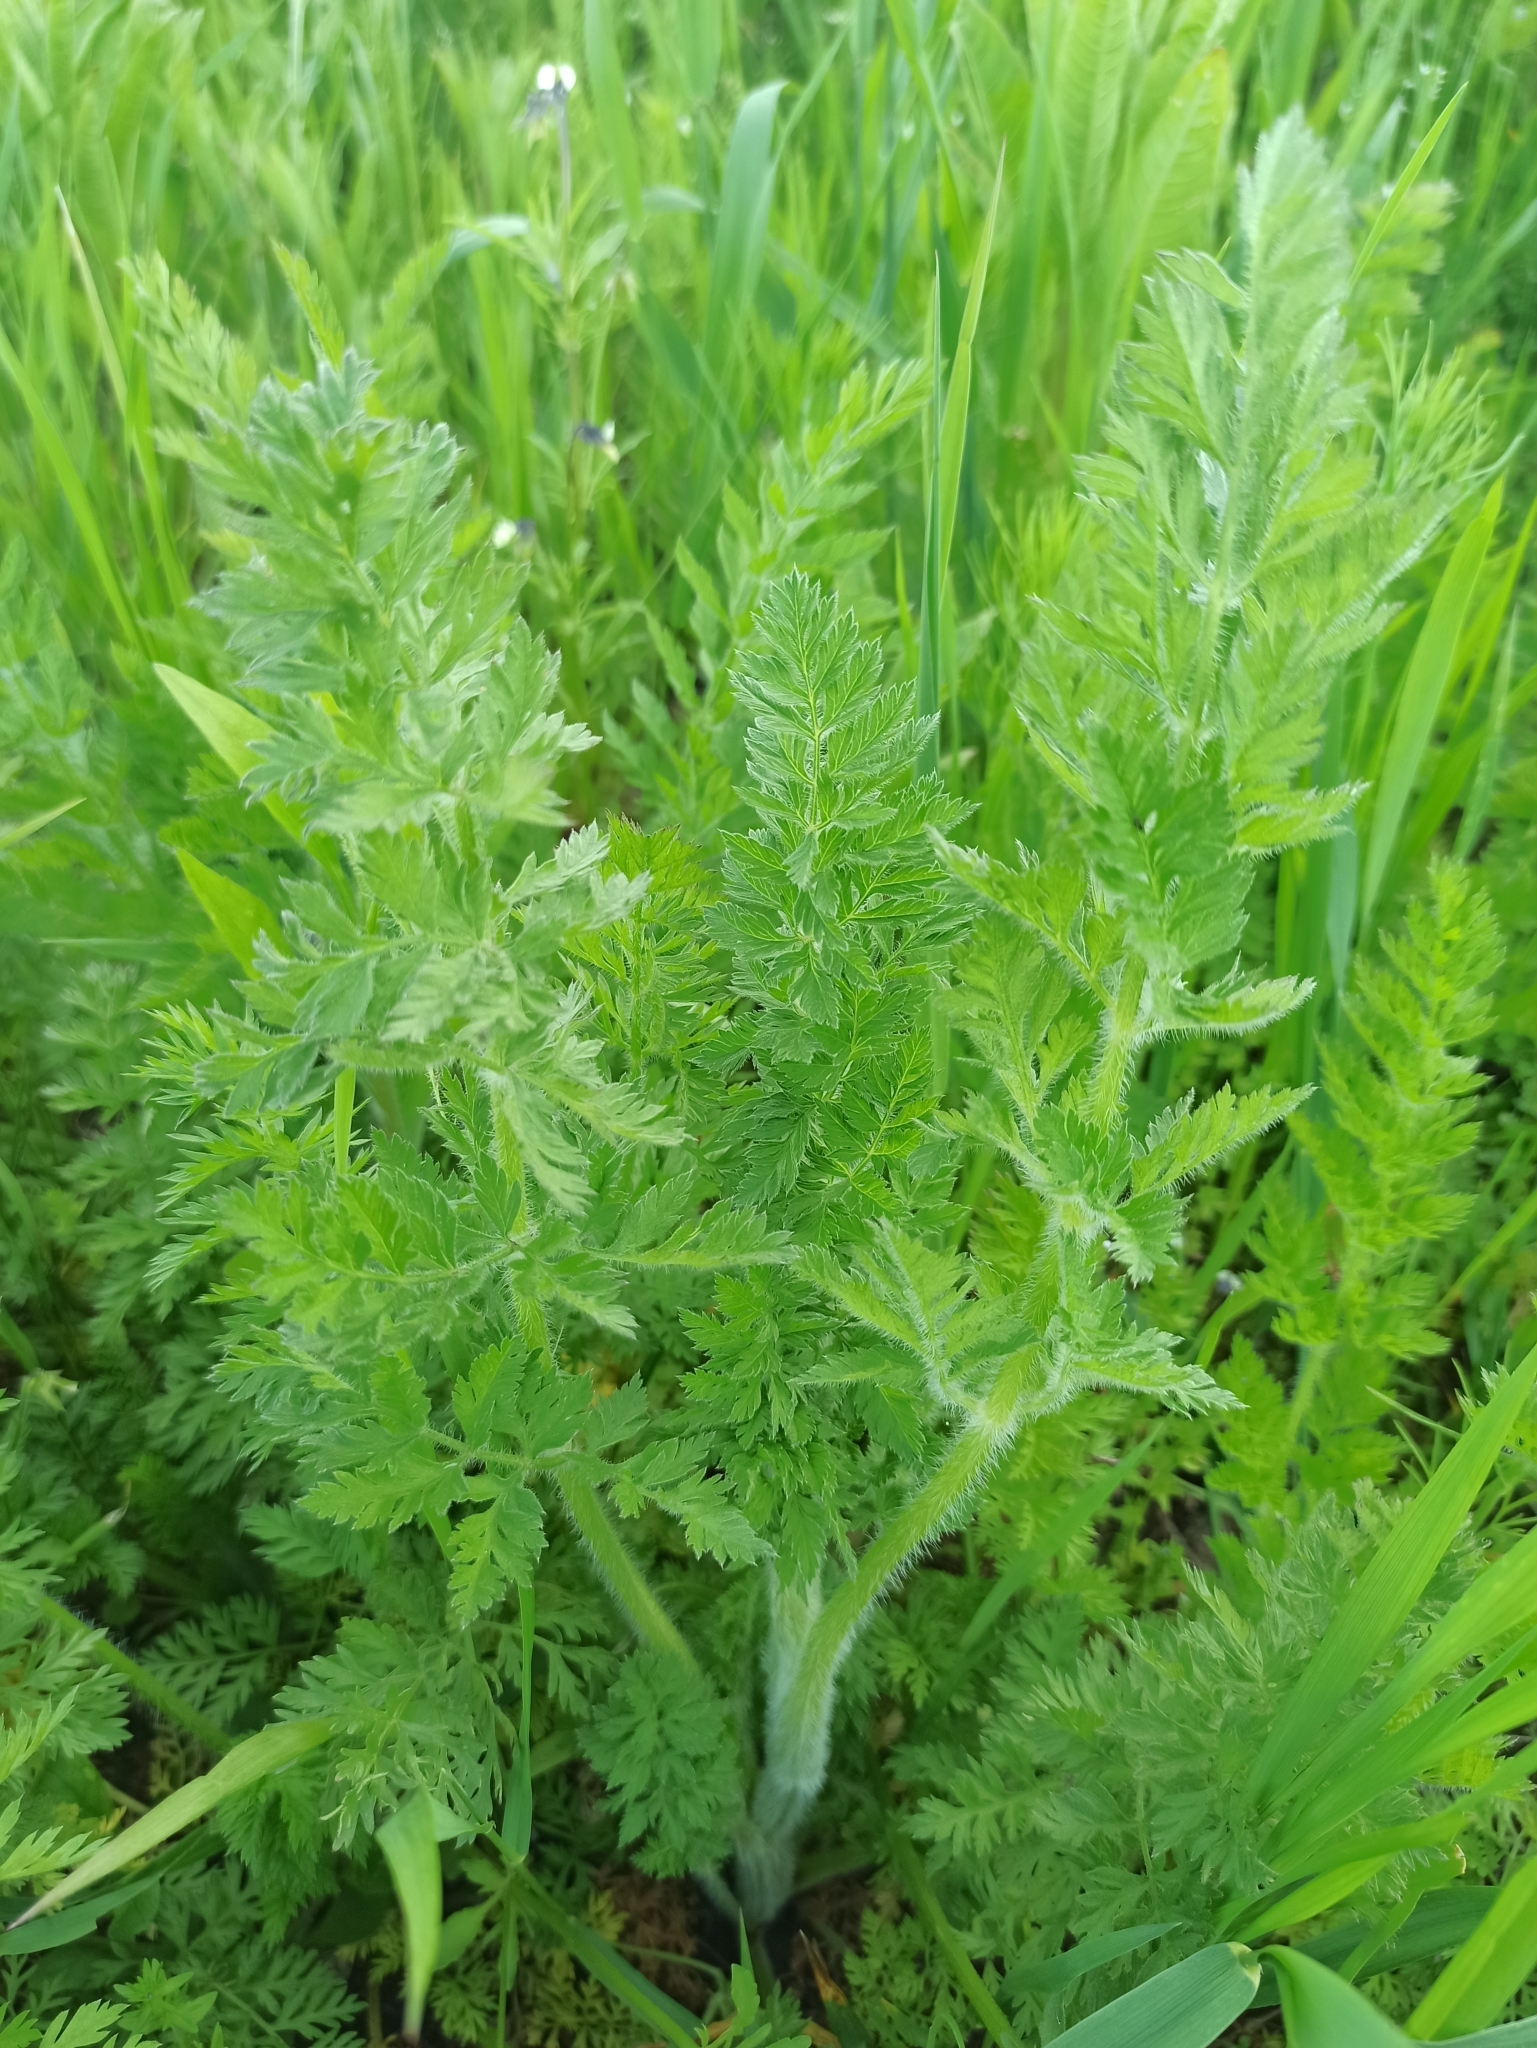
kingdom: Plantae
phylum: Tracheophyta
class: Magnoliopsida
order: Apiales
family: Apiaceae
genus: Daucus
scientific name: Daucus carota
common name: Wild carrot
